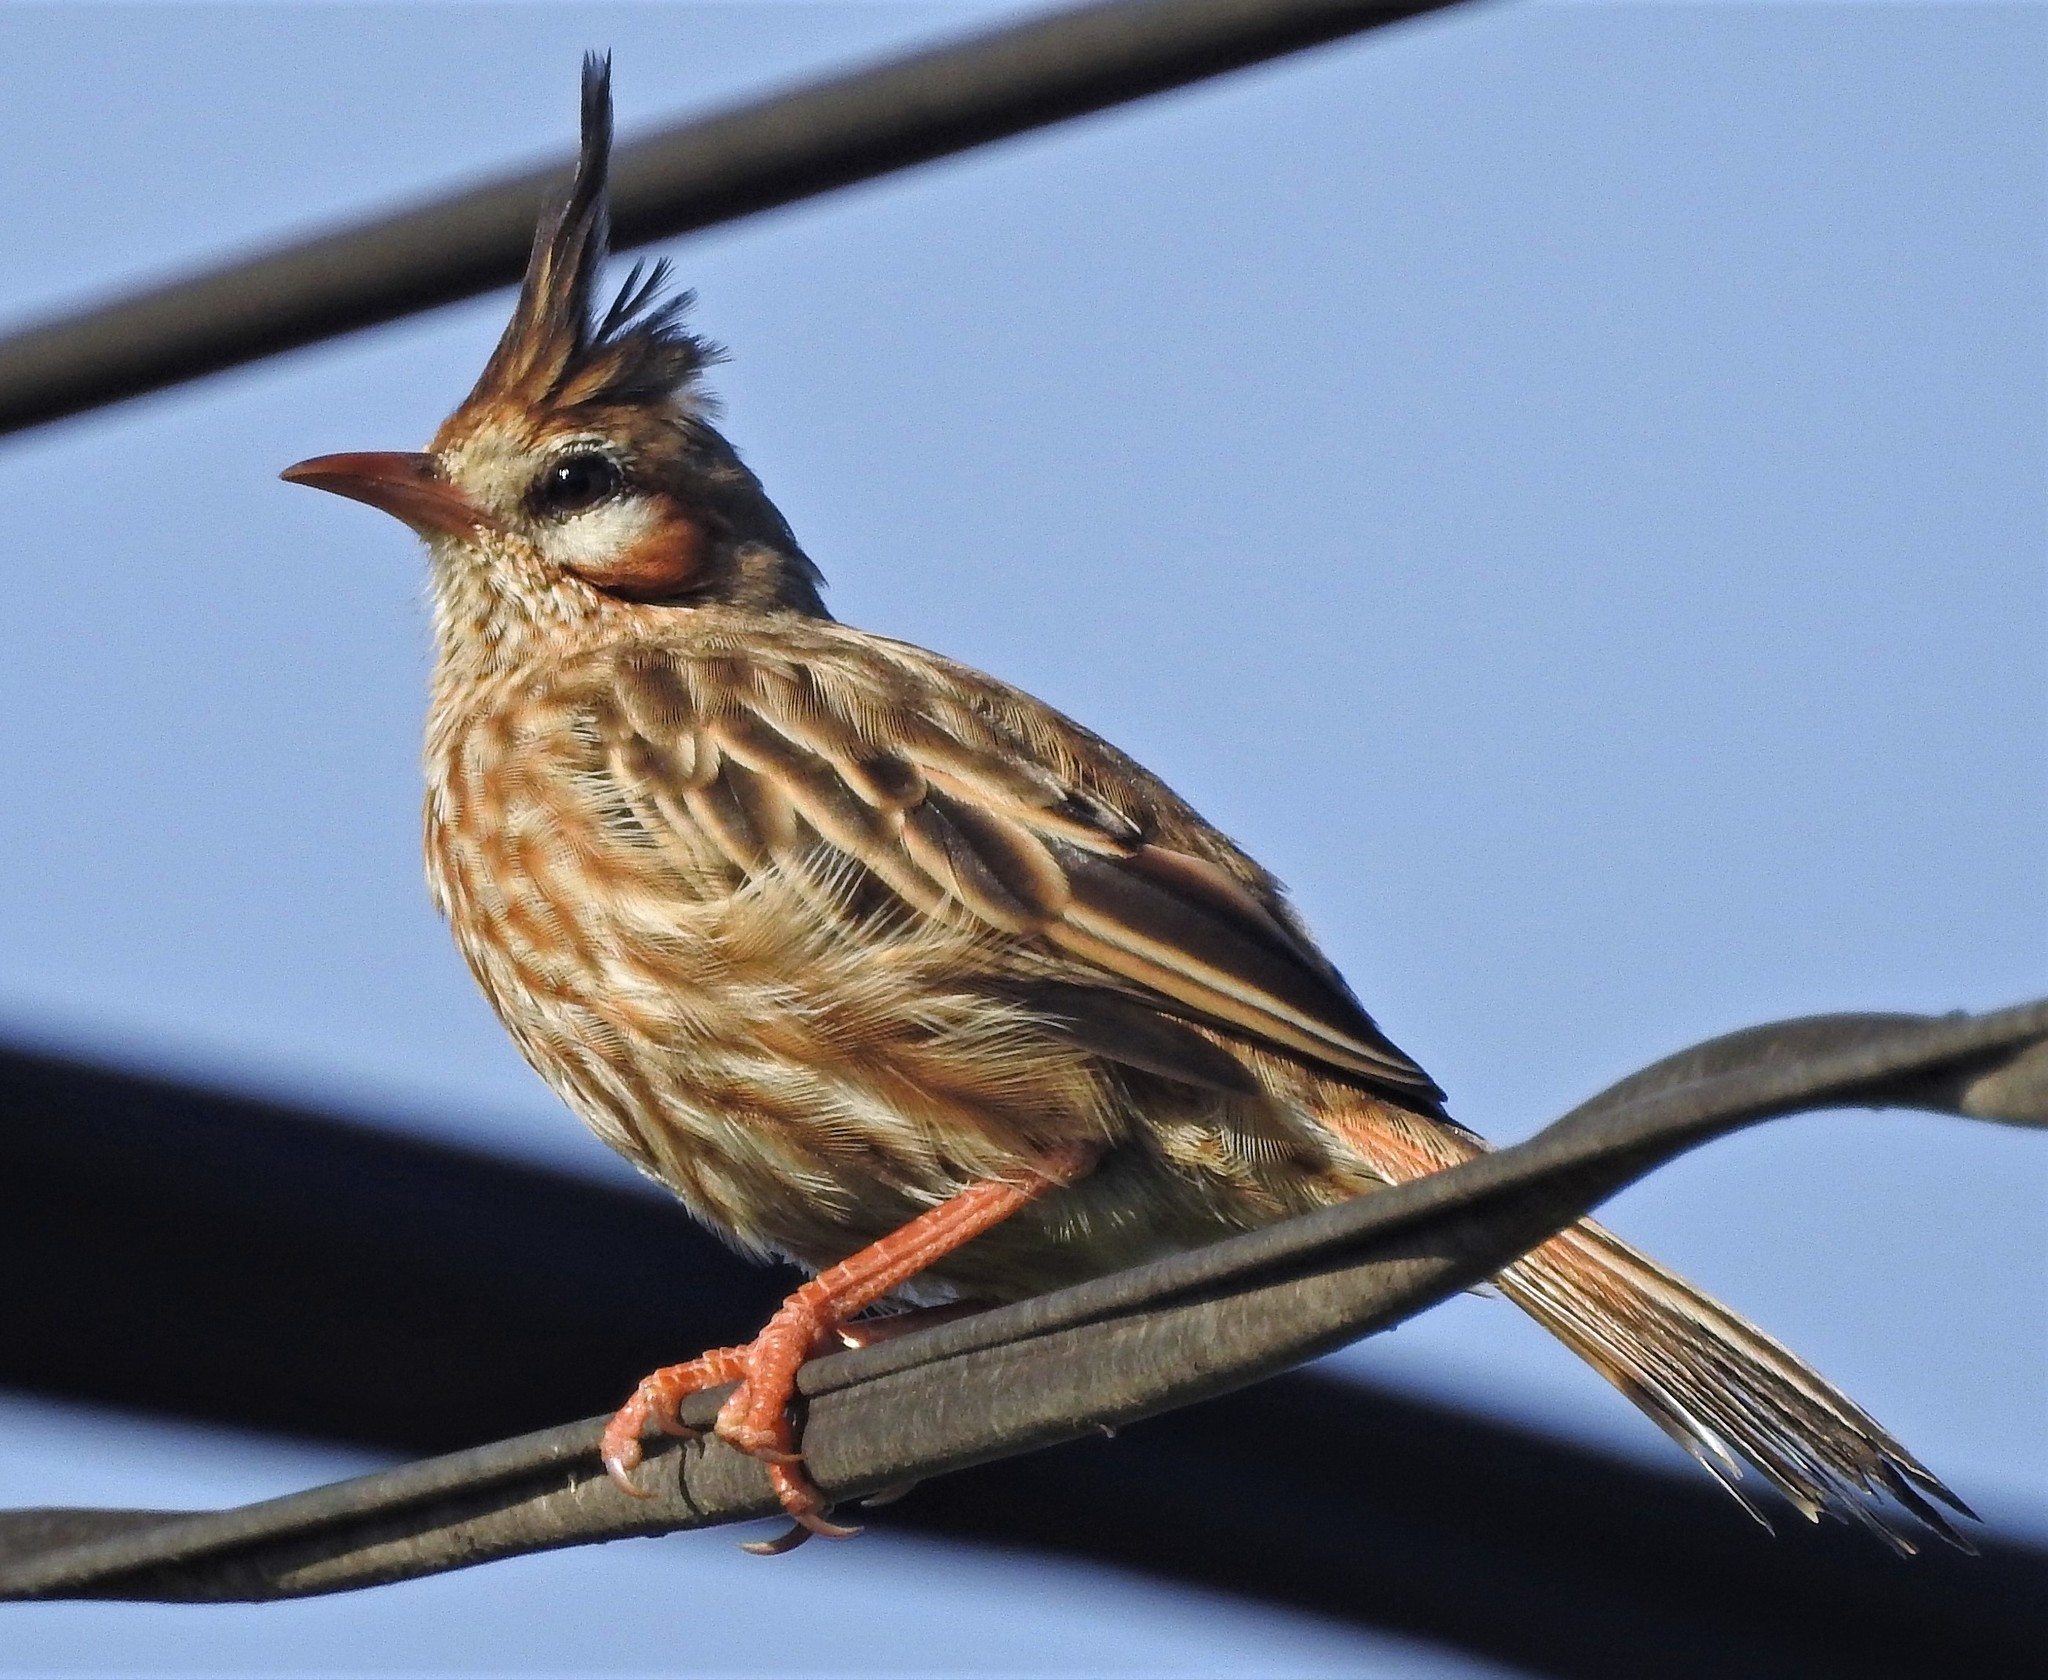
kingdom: Animalia
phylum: Chordata
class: Aves
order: Passeriformes
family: Furnariidae
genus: Coryphistera
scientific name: Coryphistera alaudina
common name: Lark-like brushrunner
